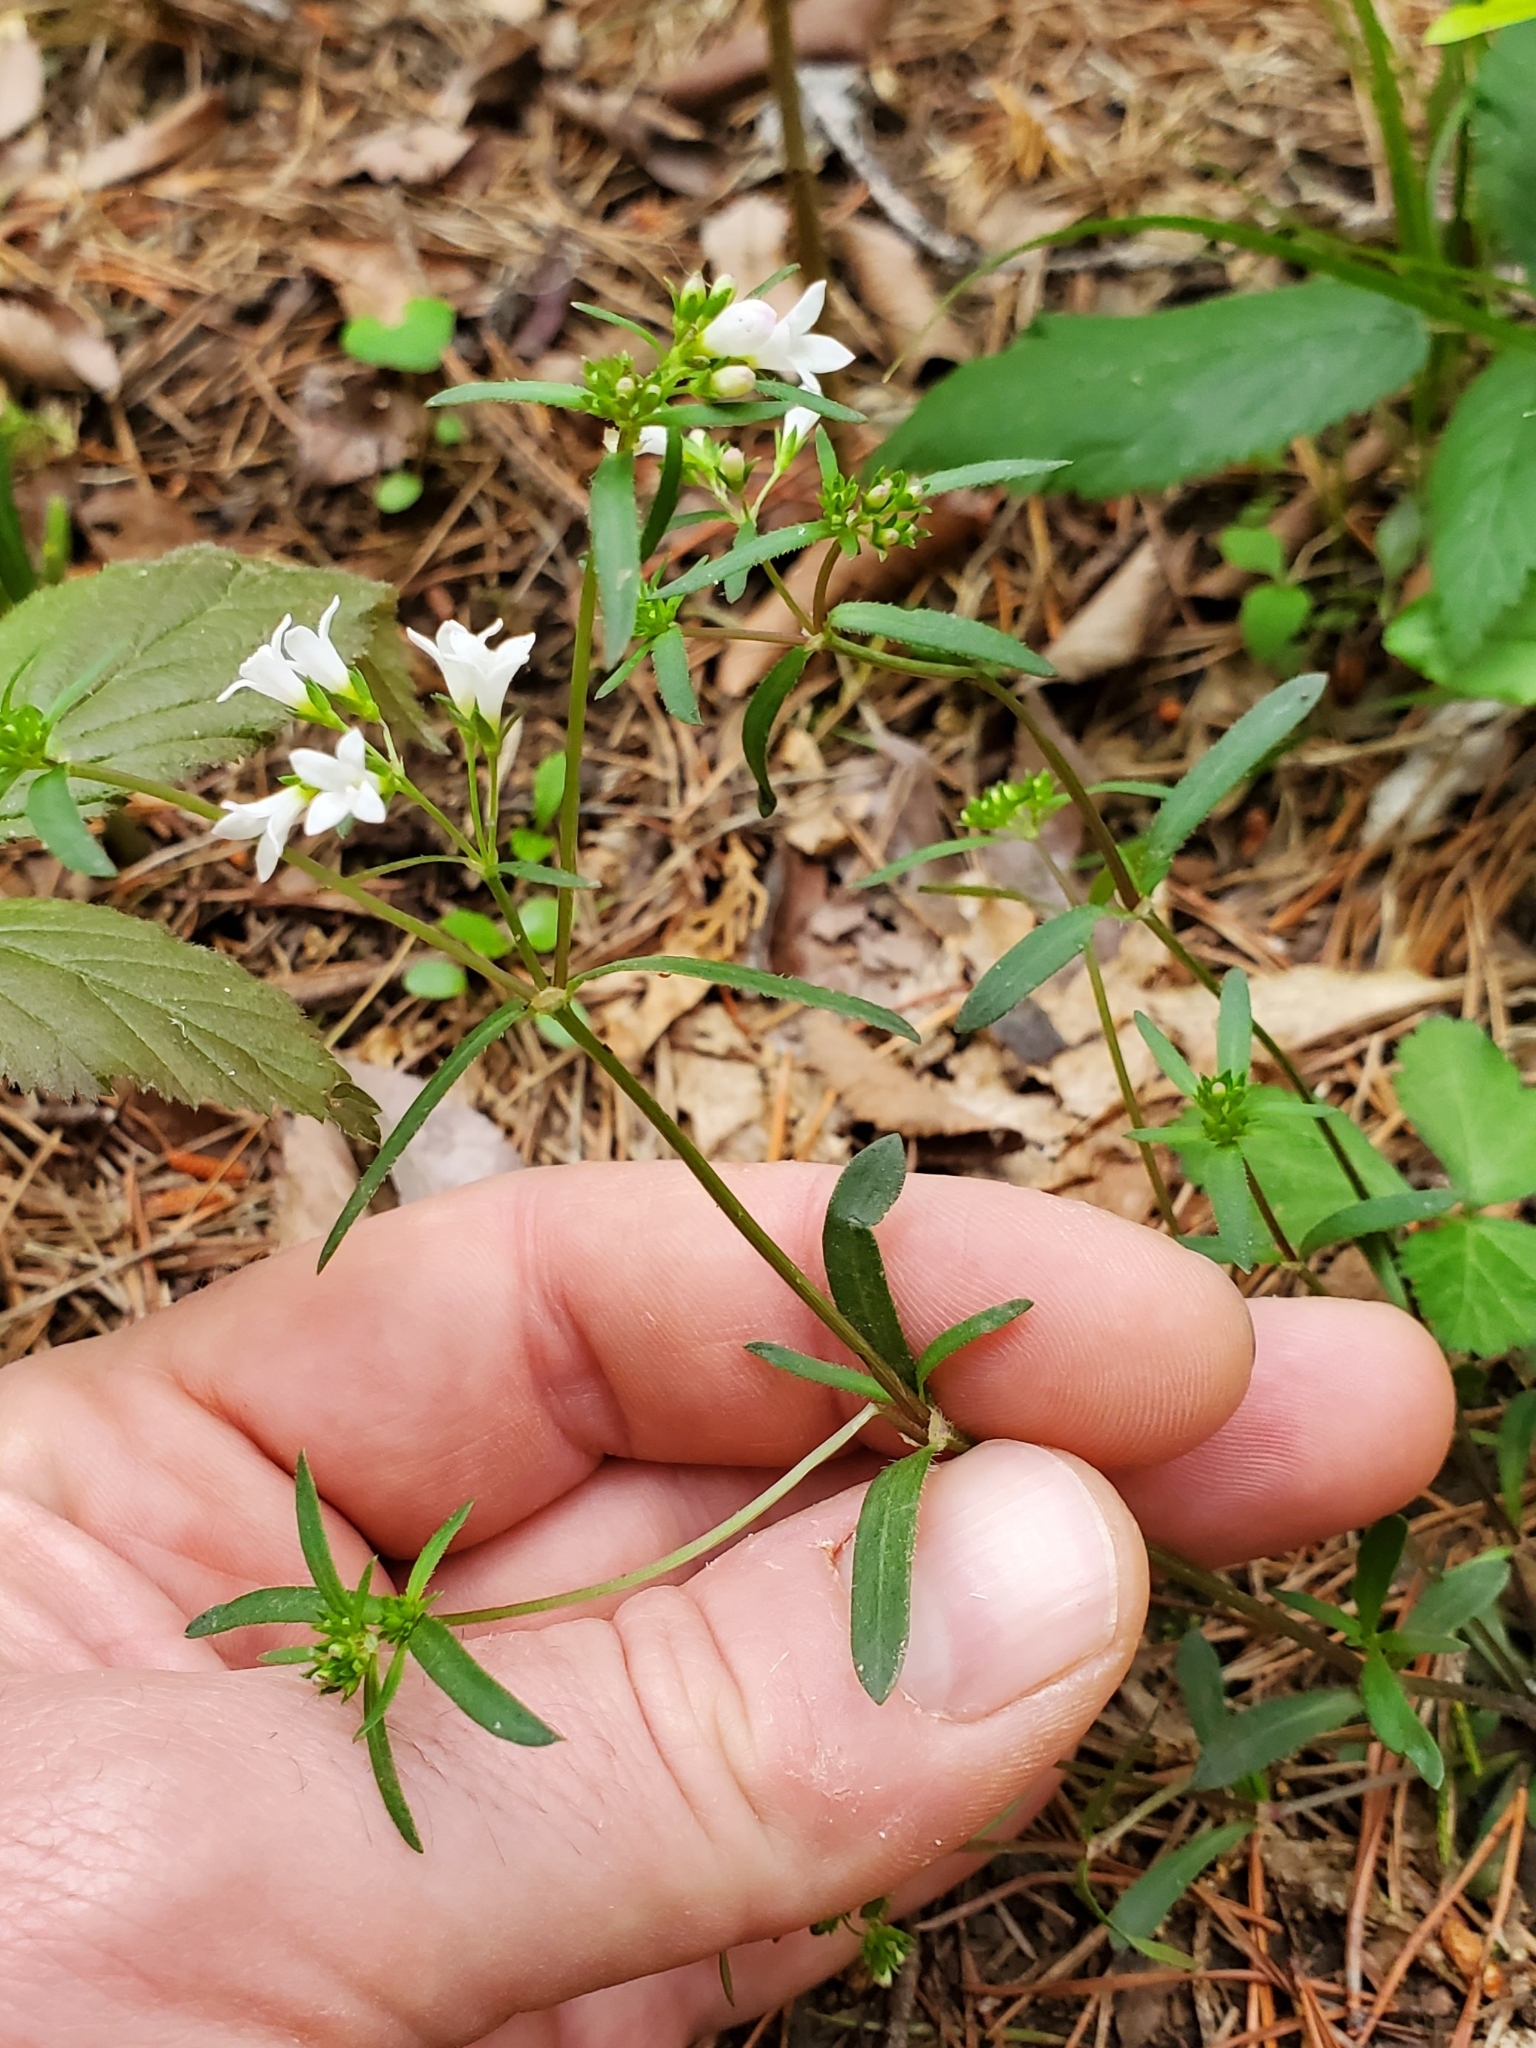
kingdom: Plantae
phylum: Tracheophyta
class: Magnoliopsida
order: Gentianales
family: Rubiaceae
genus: Houstonia
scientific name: Houstonia canadensis
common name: Fringed houstonia
